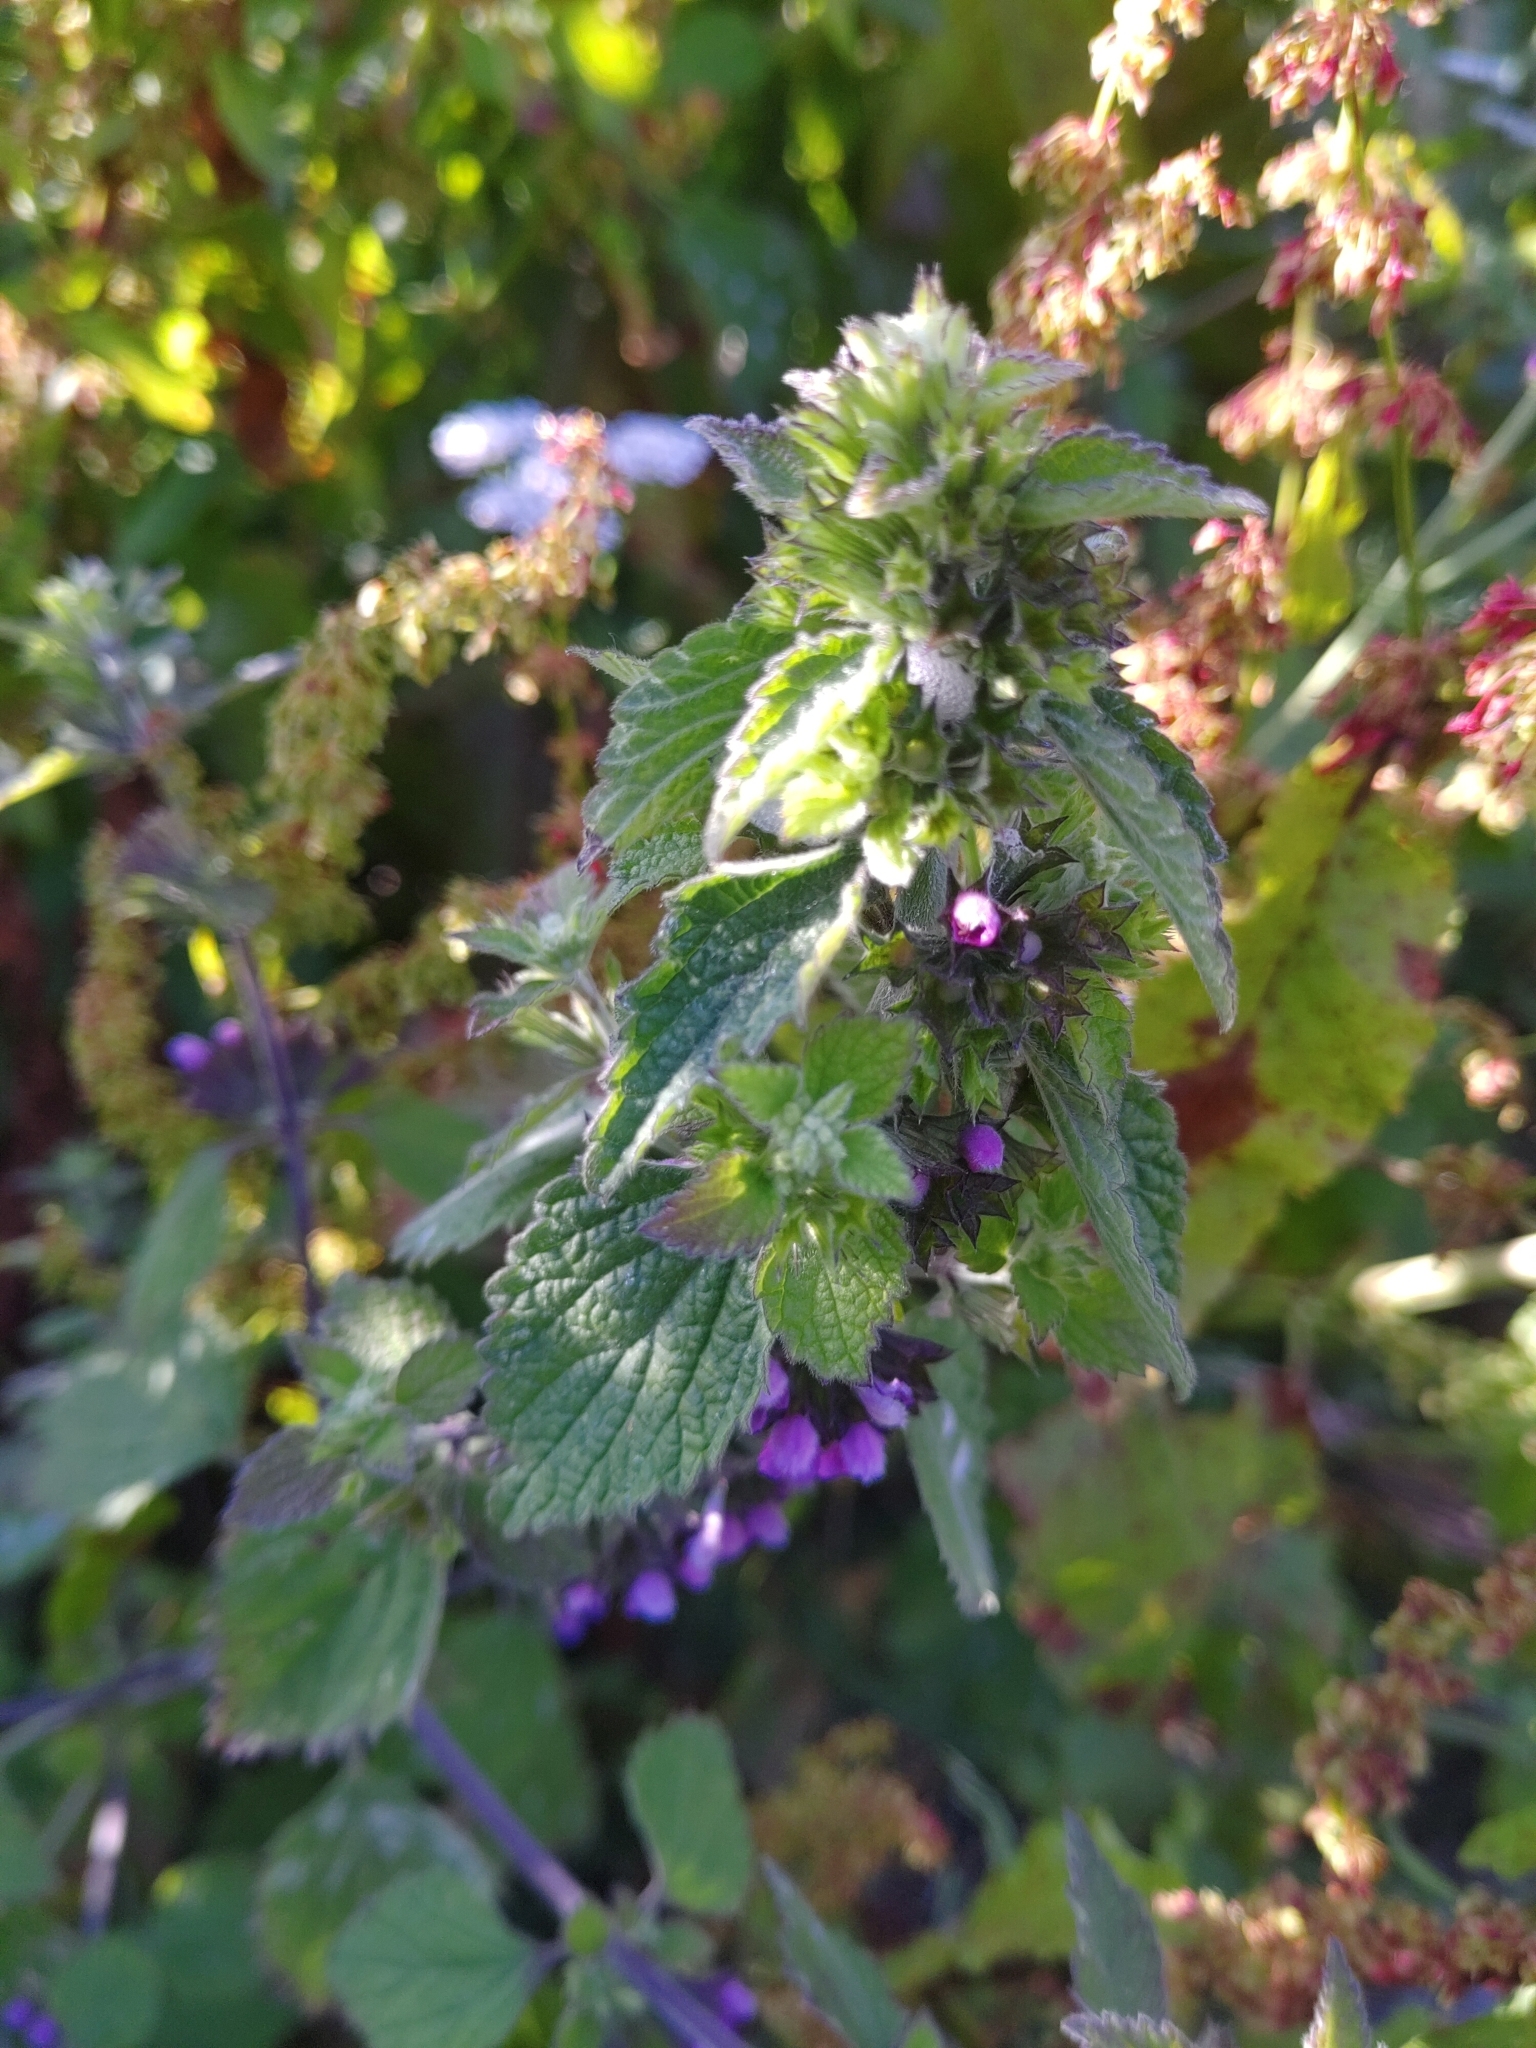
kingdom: Plantae
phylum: Tracheophyta
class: Magnoliopsida
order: Lamiales
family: Lamiaceae
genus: Ballota
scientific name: Ballota nigra
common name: Black horehound
